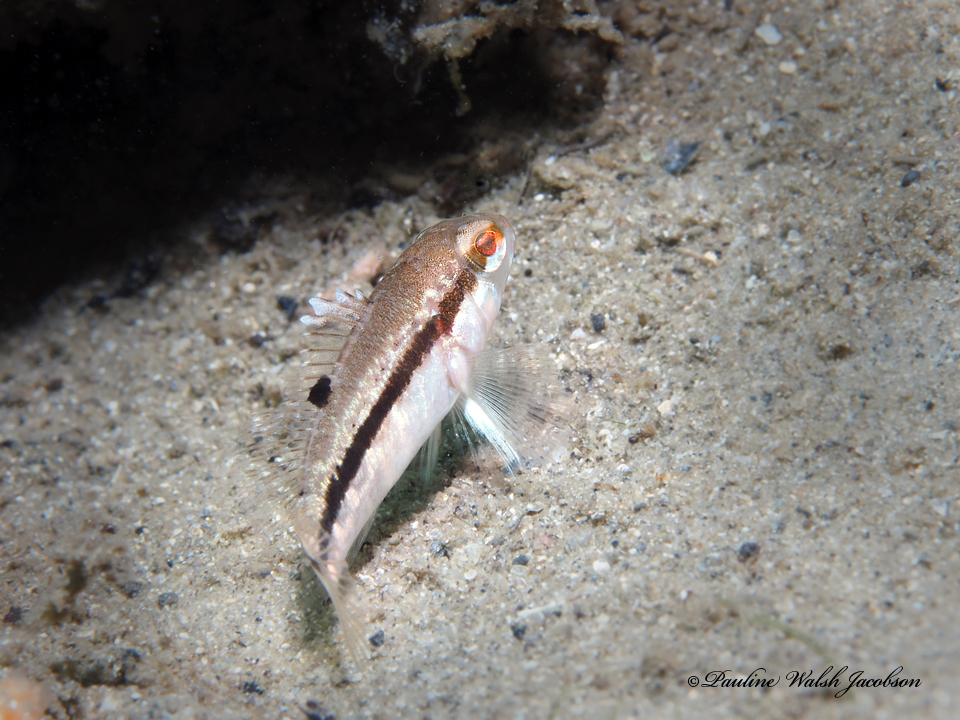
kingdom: Animalia
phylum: Chordata
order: Perciformes
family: Serranidae
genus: Centropristis
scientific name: Centropristis striata
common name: Black sea bass
